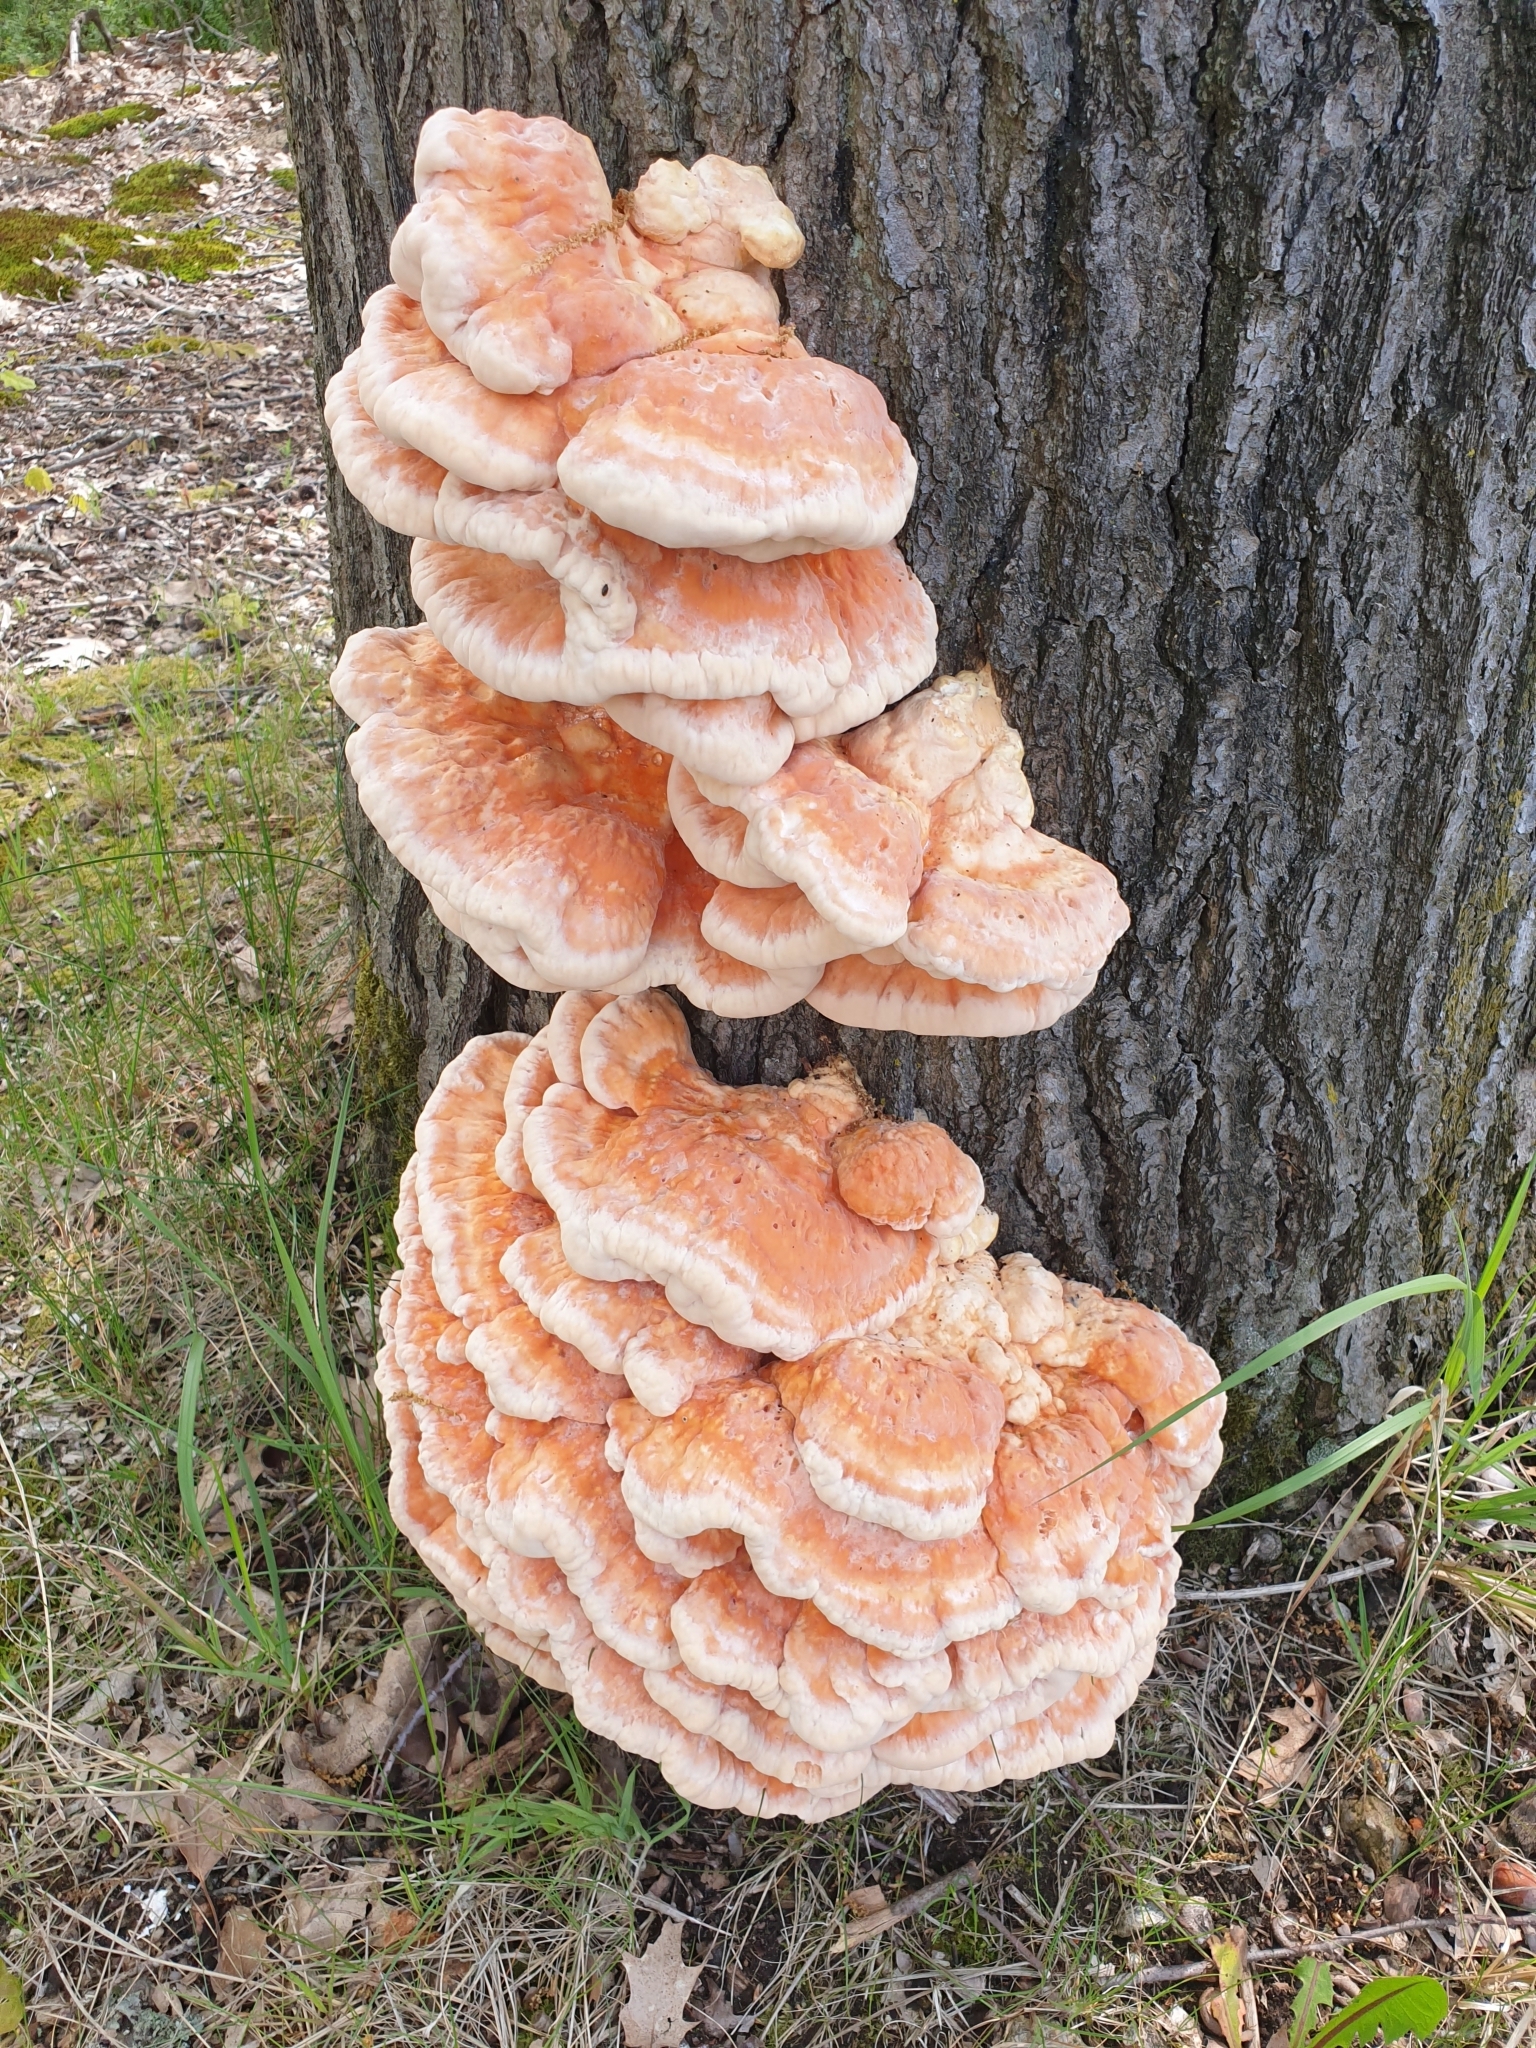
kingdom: Fungi
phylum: Basidiomycota
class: Agaricomycetes
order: Polyporales
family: Laetiporaceae
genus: Laetiporus
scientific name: Laetiporus sulphureus
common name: Chicken of the woods
